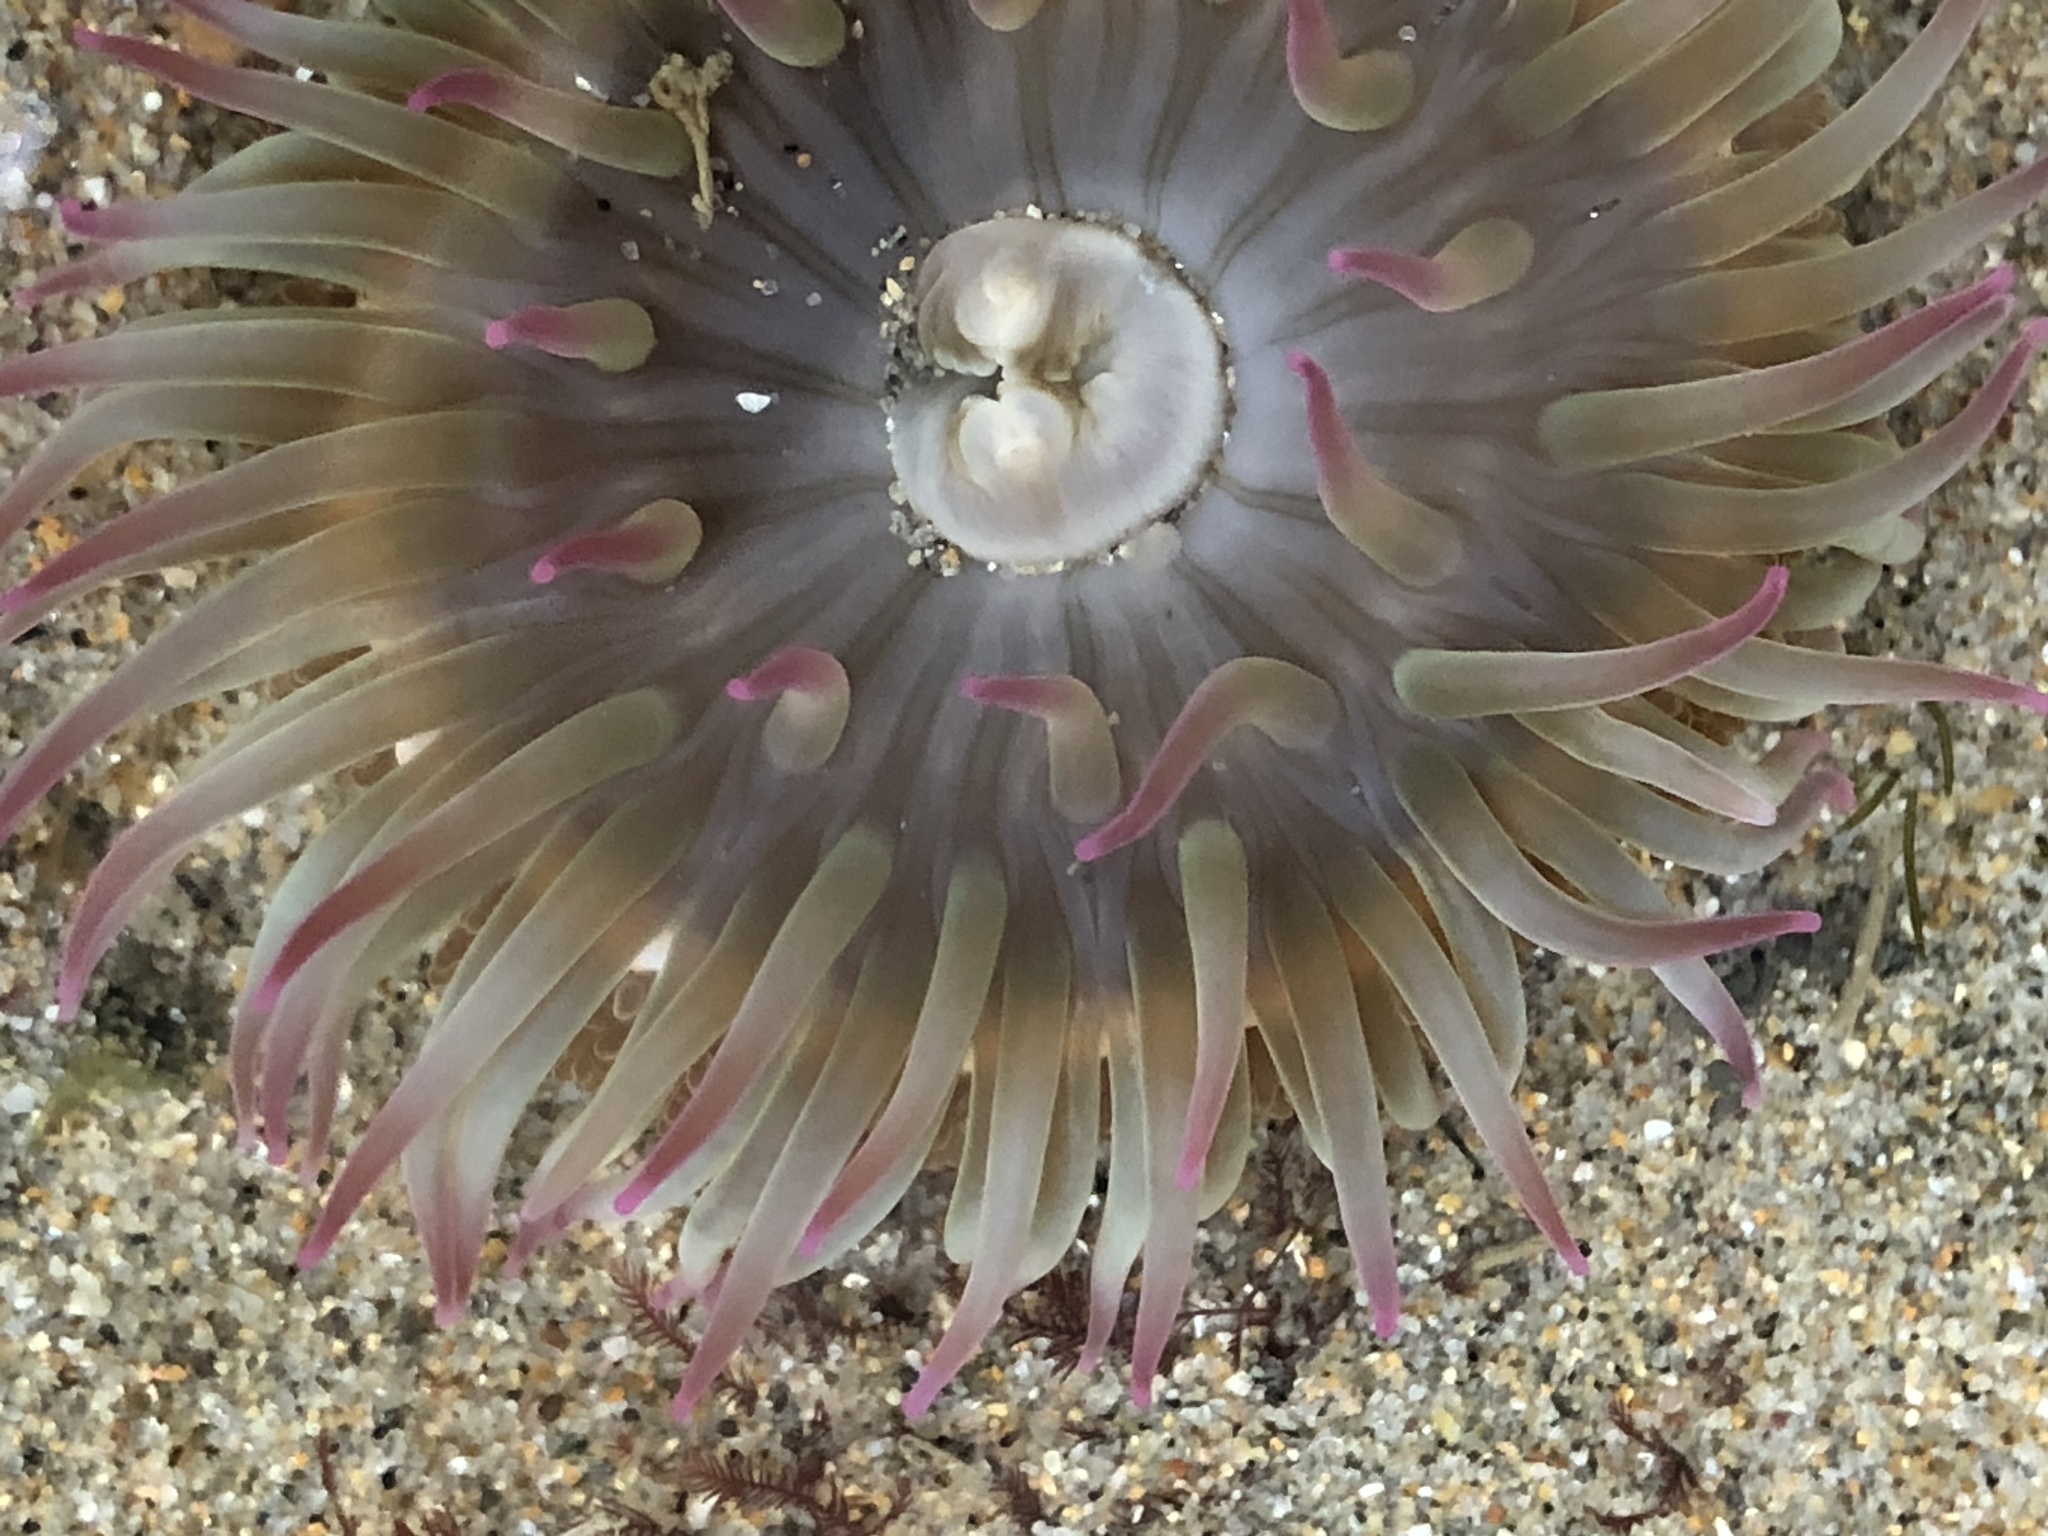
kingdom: Animalia
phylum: Cnidaria
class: Anthozoa
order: Actiniaria
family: Actiniidae
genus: Anthopleura
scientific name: Anthopleura elegantissima
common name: Clonal anemone
